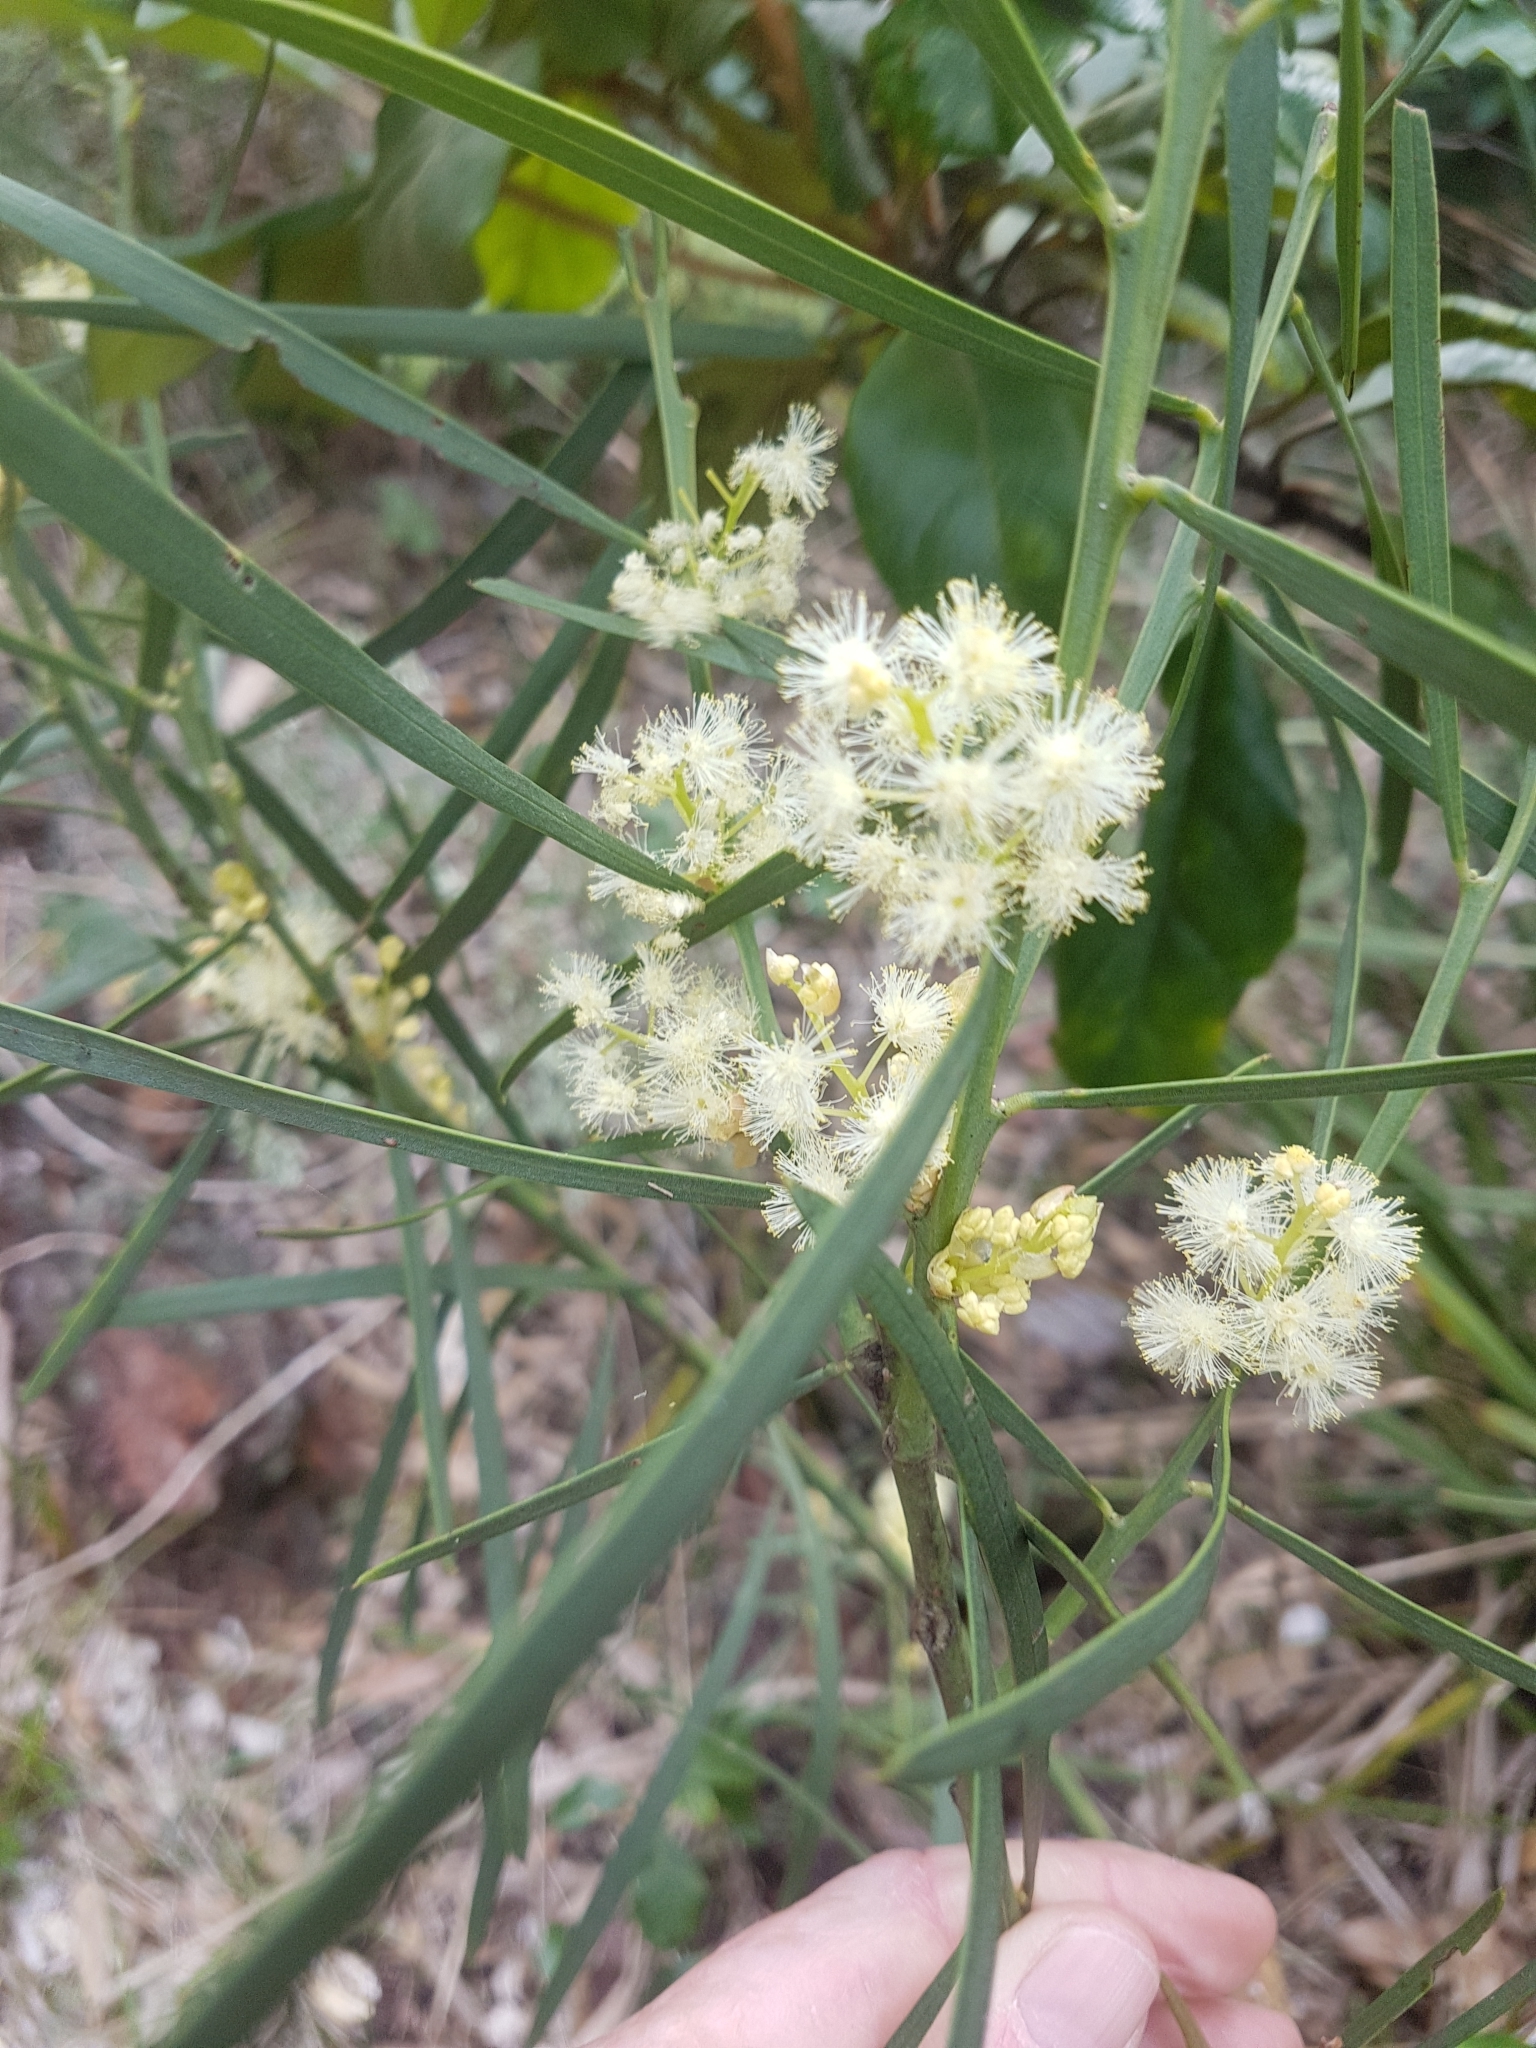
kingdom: Plantae
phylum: Tracheophyta
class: Magnoliopsida
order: Fabales
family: Fabaceae
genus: Acacia
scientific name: Acacia suaveolens
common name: Sweet acacia
